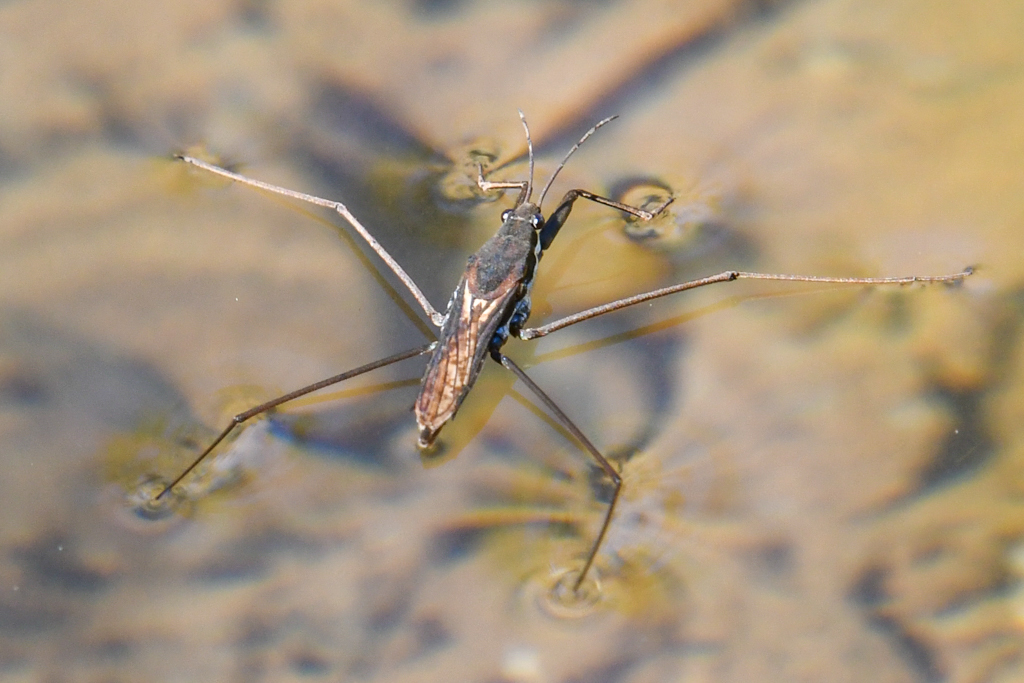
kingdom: Animalia
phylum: Arthropoda
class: Insecta
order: Hemiptera
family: Gerridae
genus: Aquarius
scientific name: Aquarius remigis
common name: Common water strider
